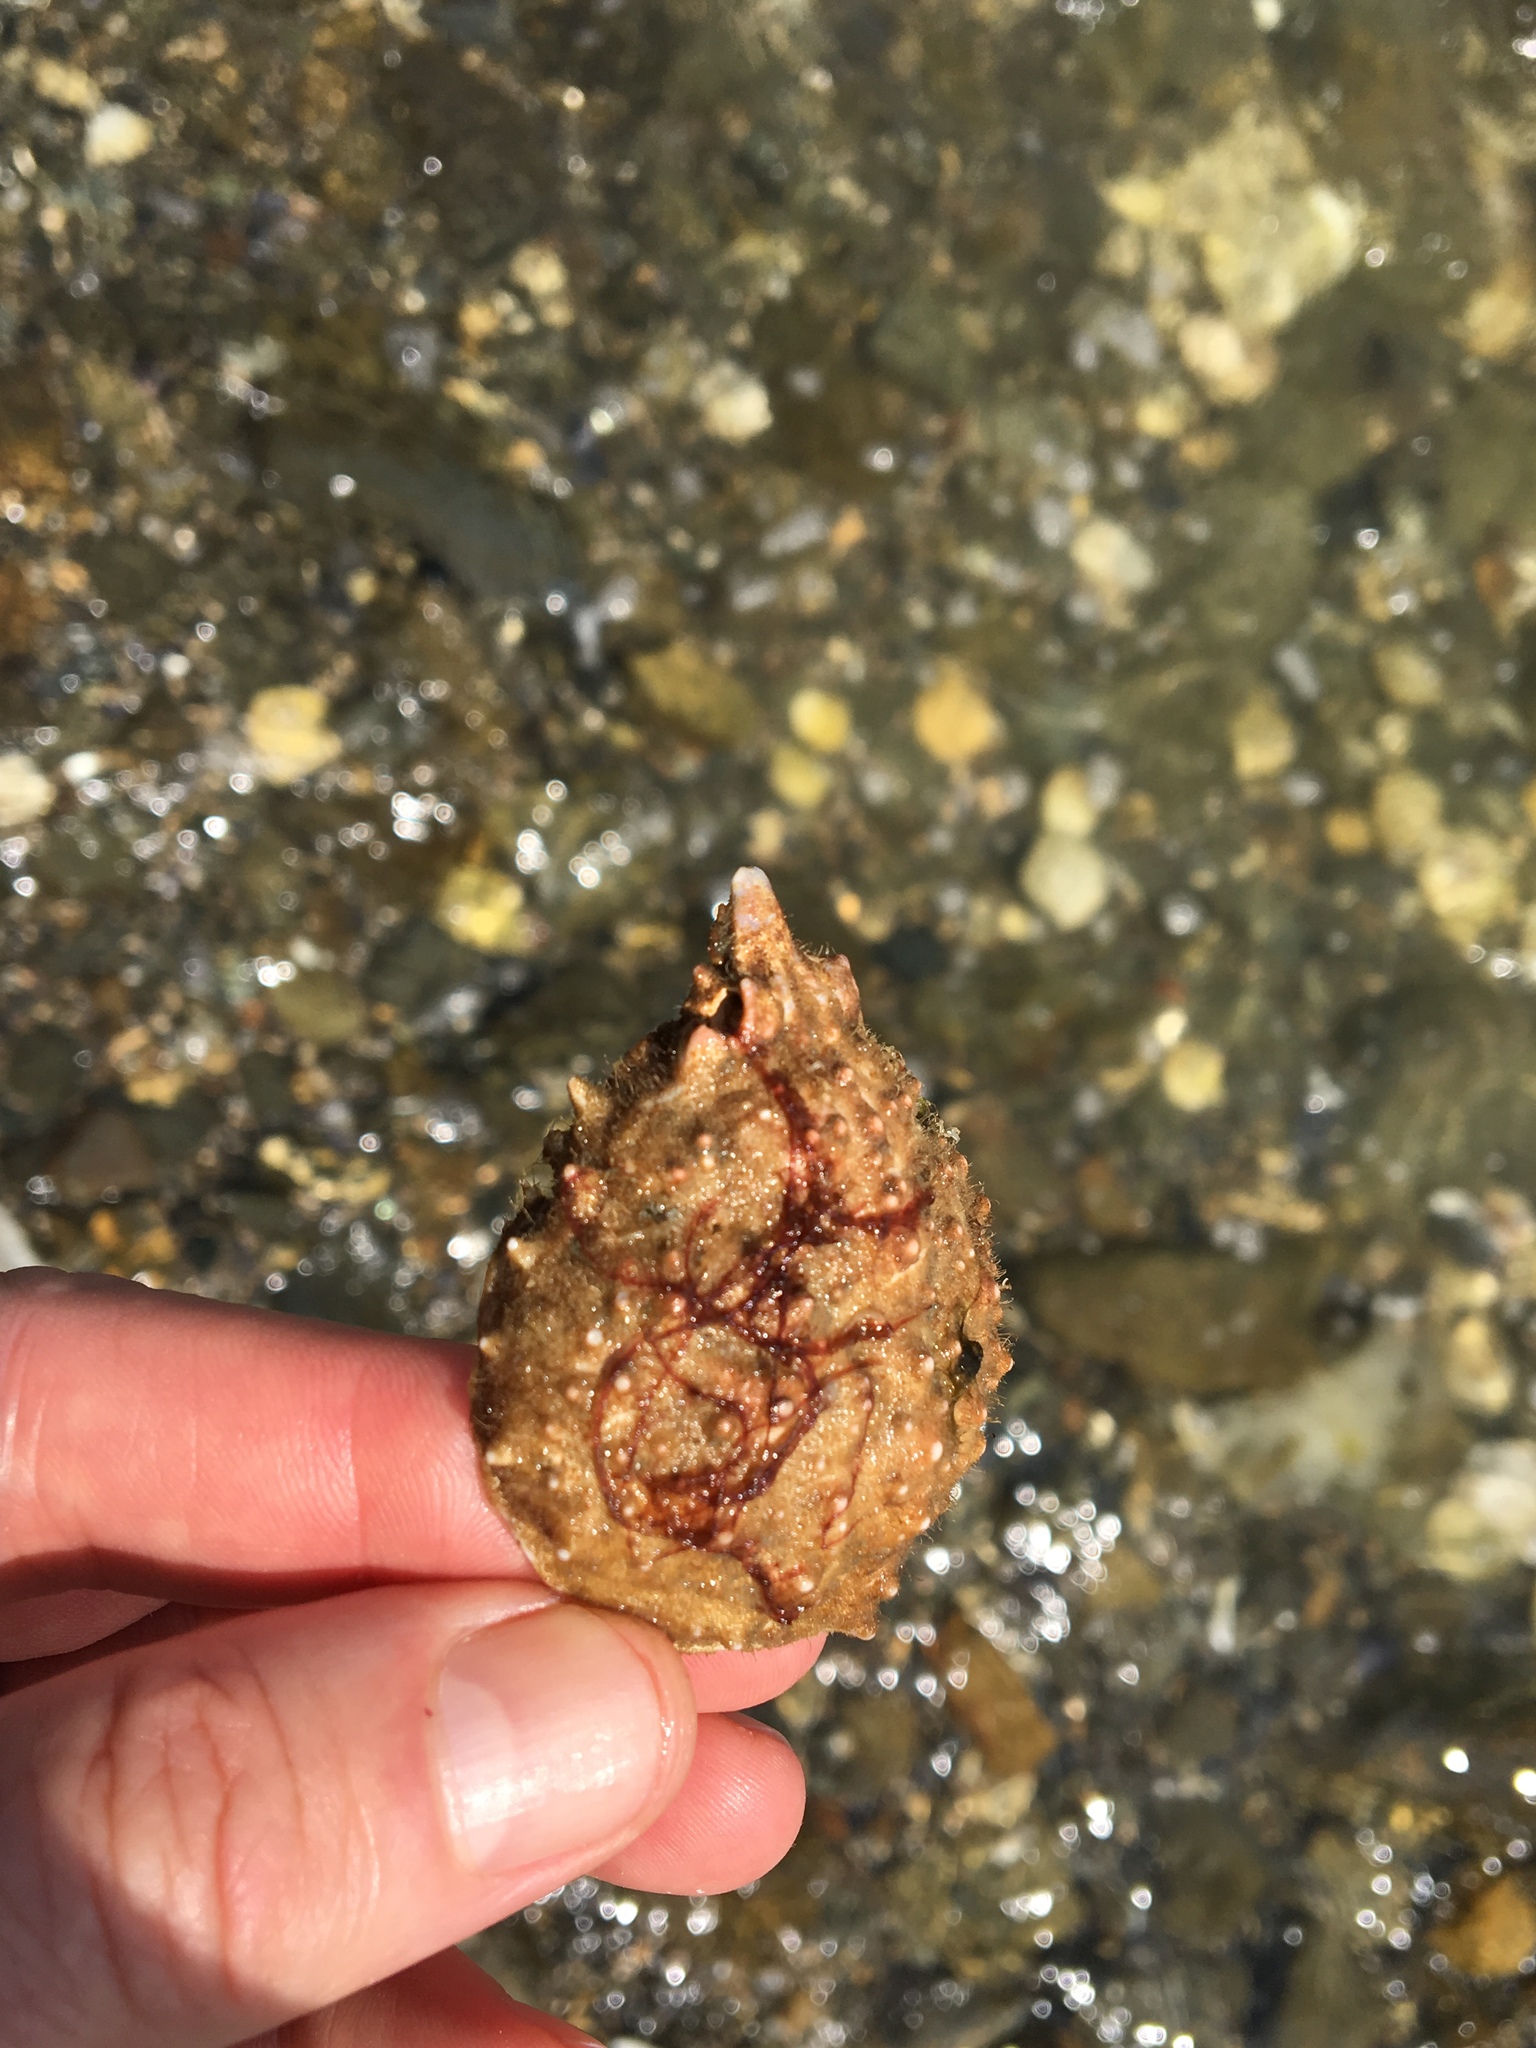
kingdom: Animalia
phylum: Arthropoda
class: Malacostraca
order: Decapoda
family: Epialtidae
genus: Libinia
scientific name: Libinia emarginata
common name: Common spider crab
